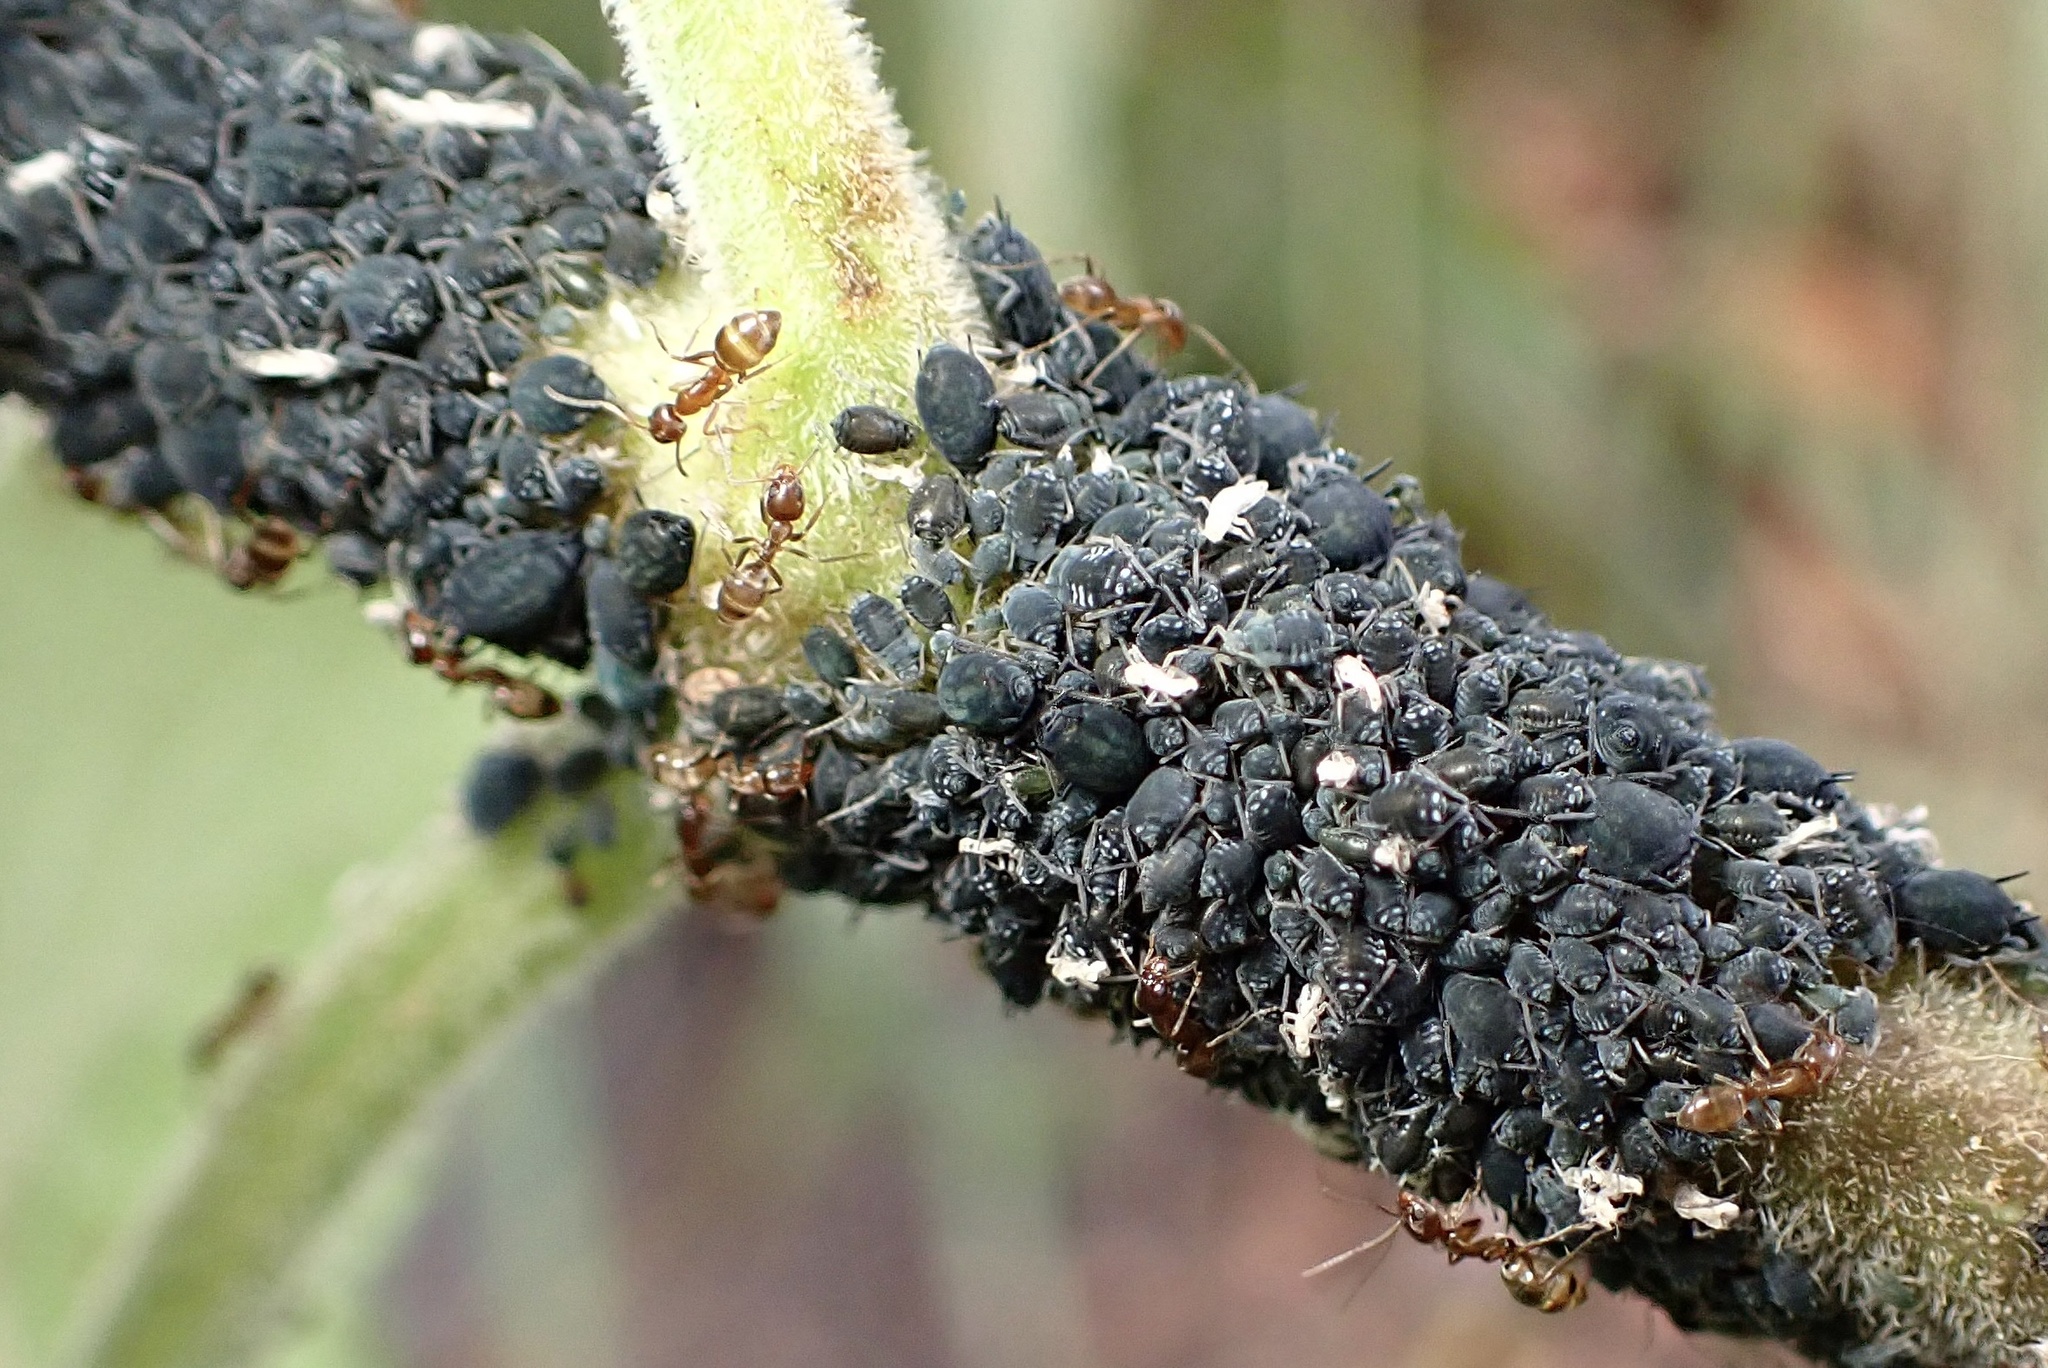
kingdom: Animalia
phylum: Arthropoda
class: Insecta
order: Hemiptera
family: Aphididae
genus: Aphis
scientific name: Aphis sambuci
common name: Elder aphid
